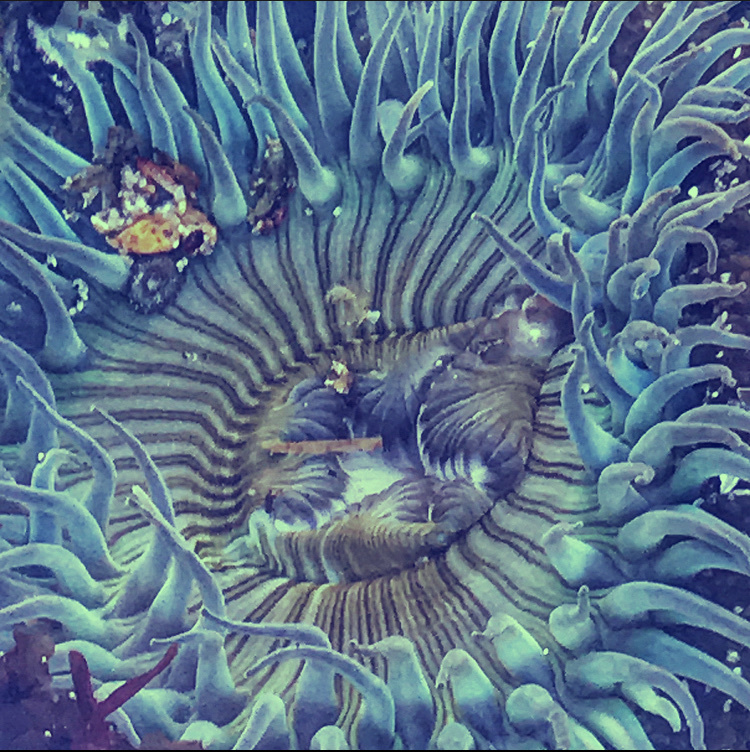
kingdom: Animalia
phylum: Cnidaria
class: Anthozoa
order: Actiniaria
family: Actiniidae
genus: Anthopleura
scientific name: Anthopleura sola
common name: Sun anemone
